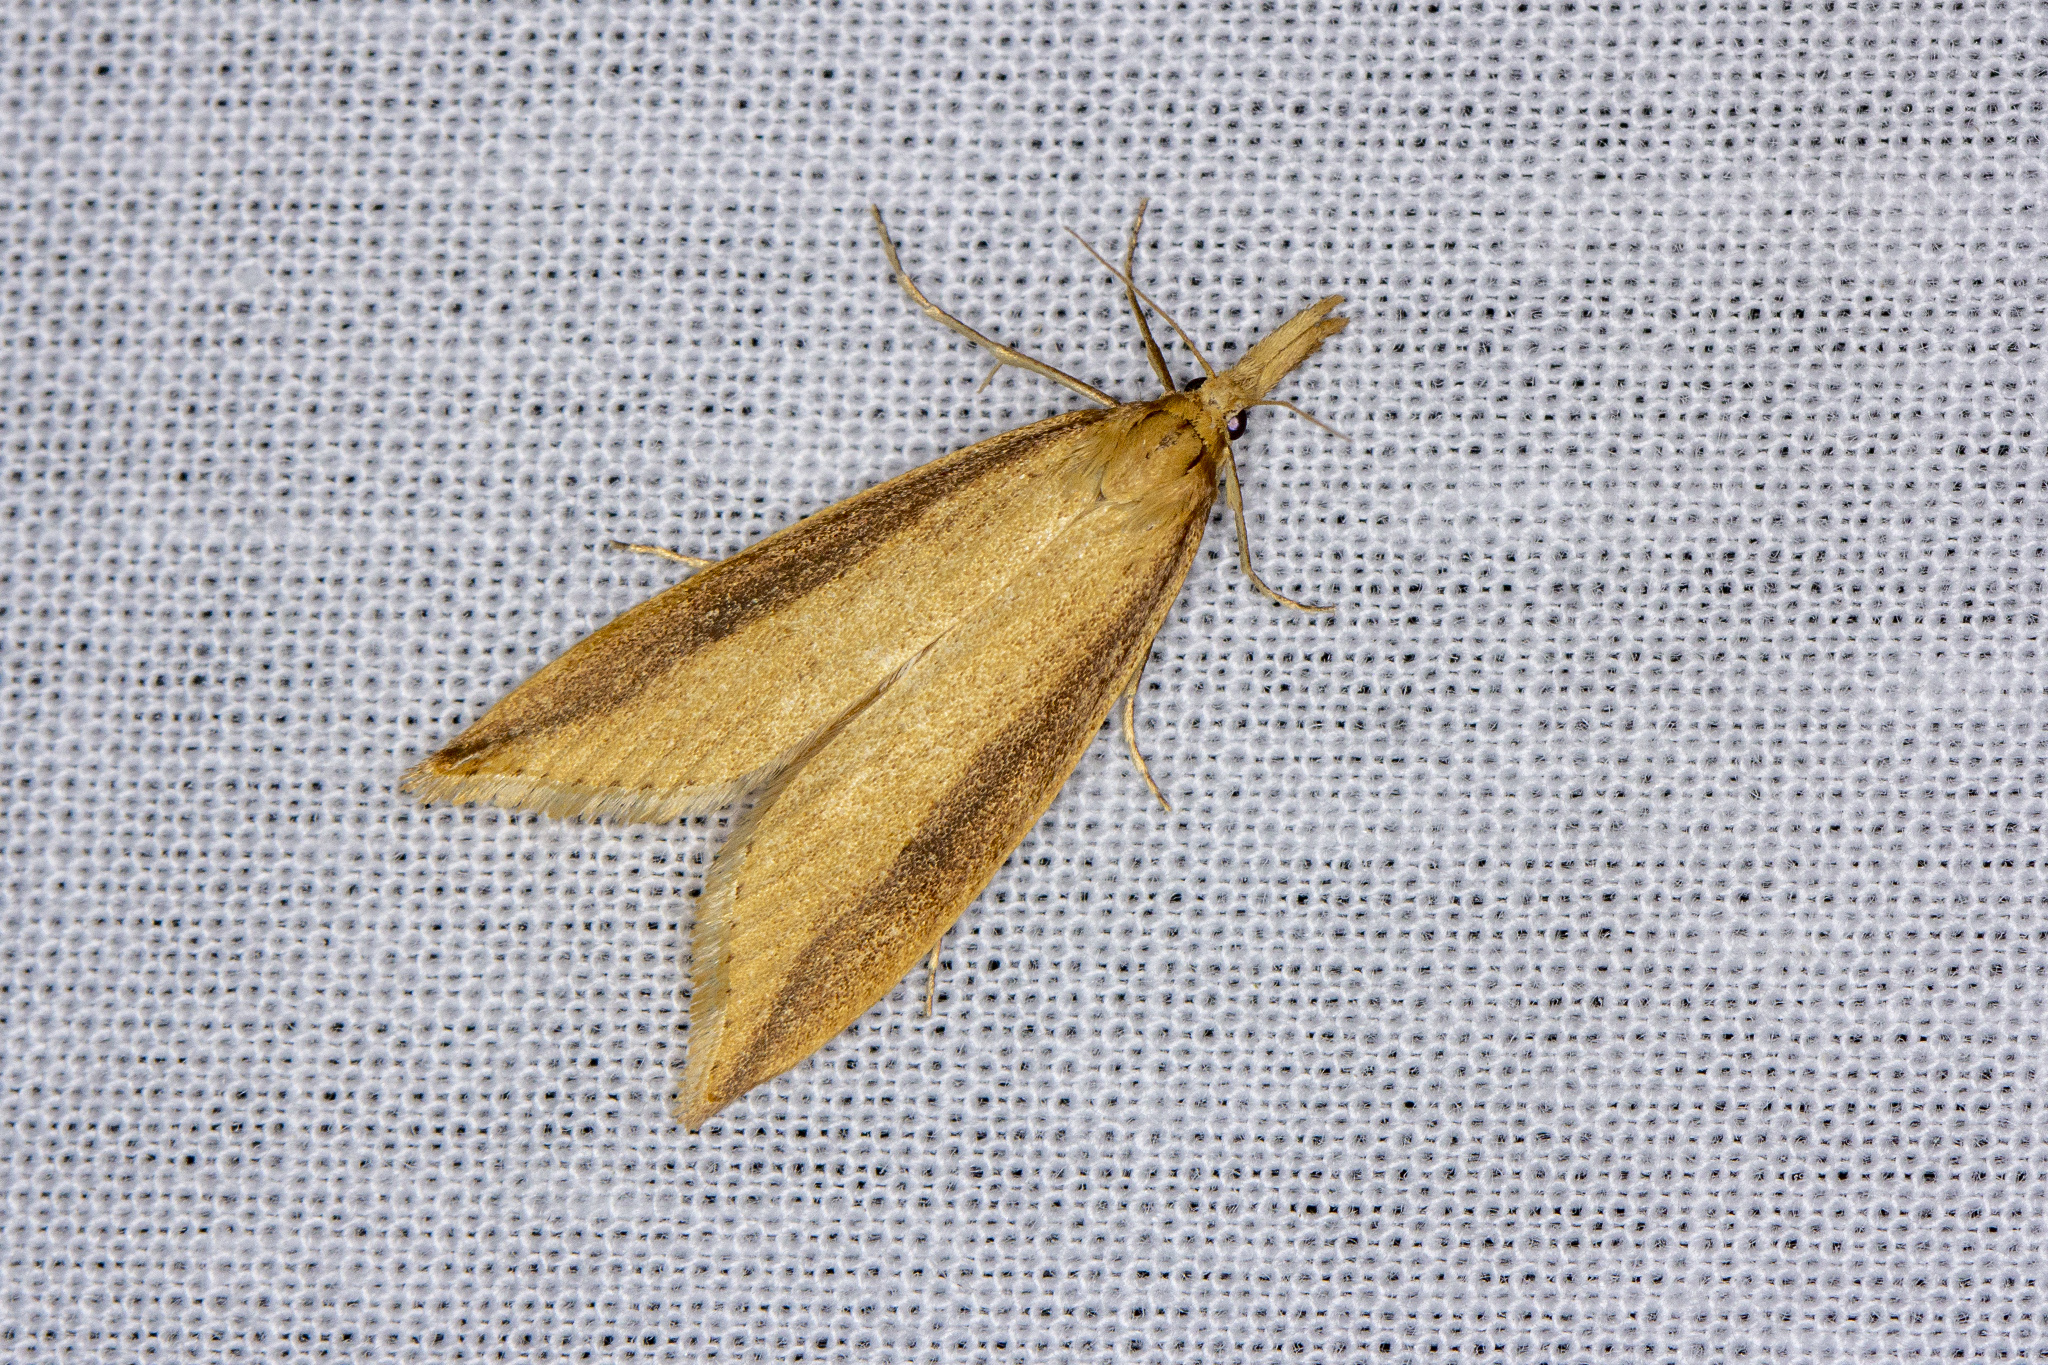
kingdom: Animalia
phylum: Arthropoda
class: Insecta
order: Lepidoptera
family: Crambidae
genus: Donacaula
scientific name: Donacaula forficella
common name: Pale water-veneer
